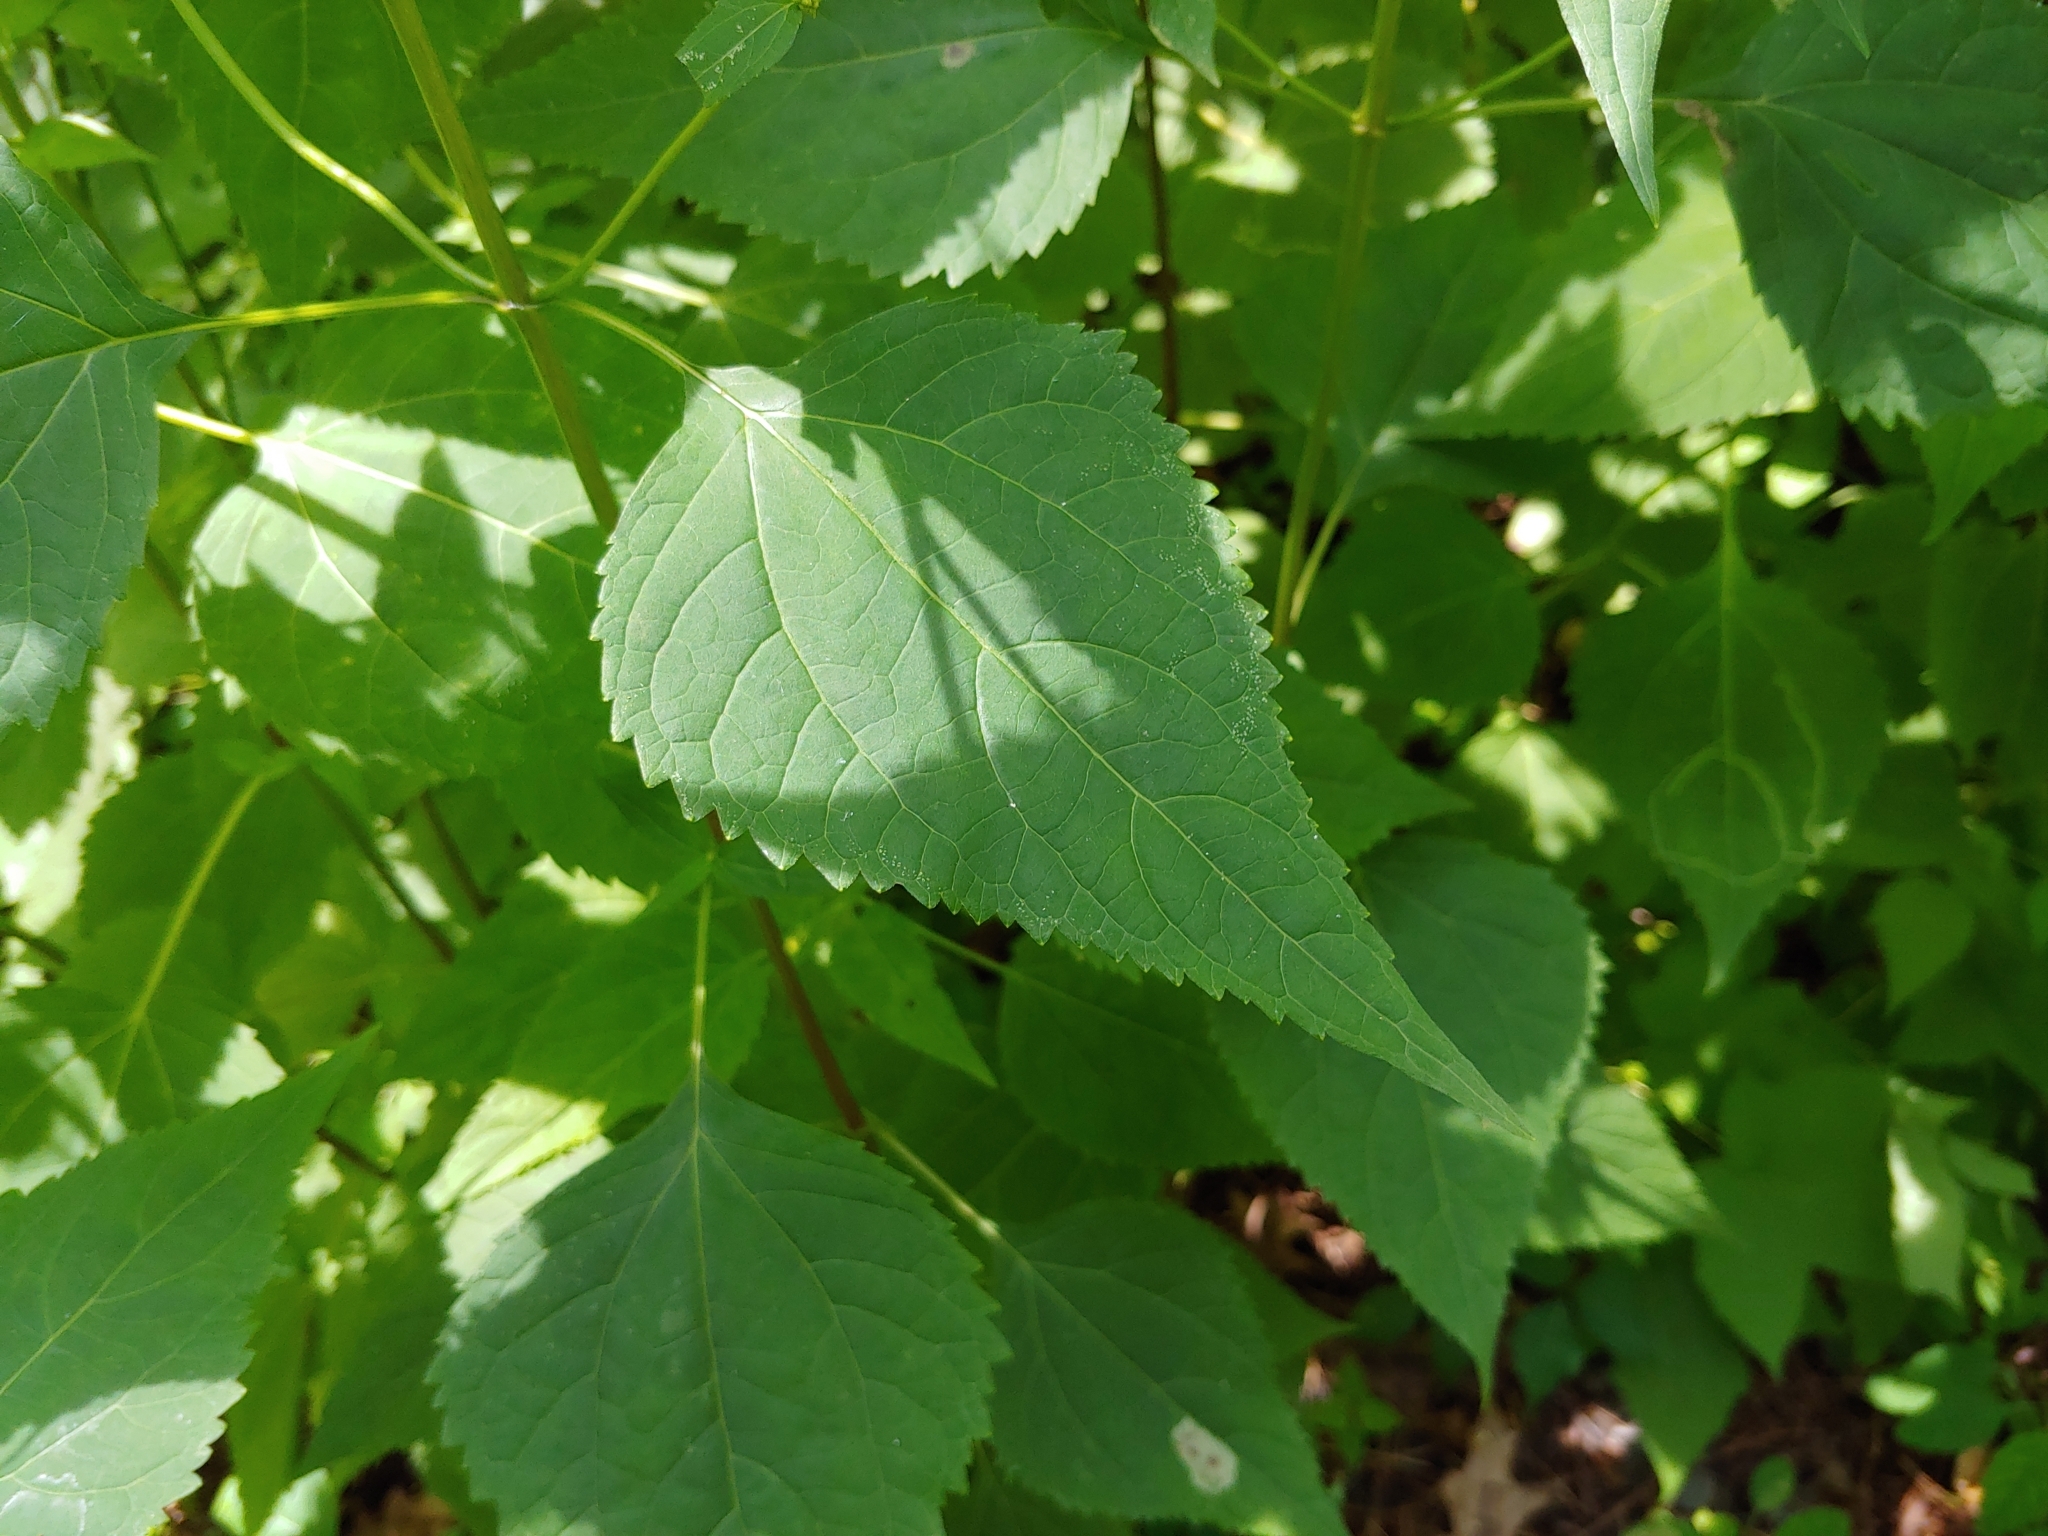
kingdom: Plantae
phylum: Tracheophyta
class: Magnoliopsida
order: Asterales
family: Asteraceae
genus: Ageratina
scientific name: Ageratina altissima
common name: White snakeroot
